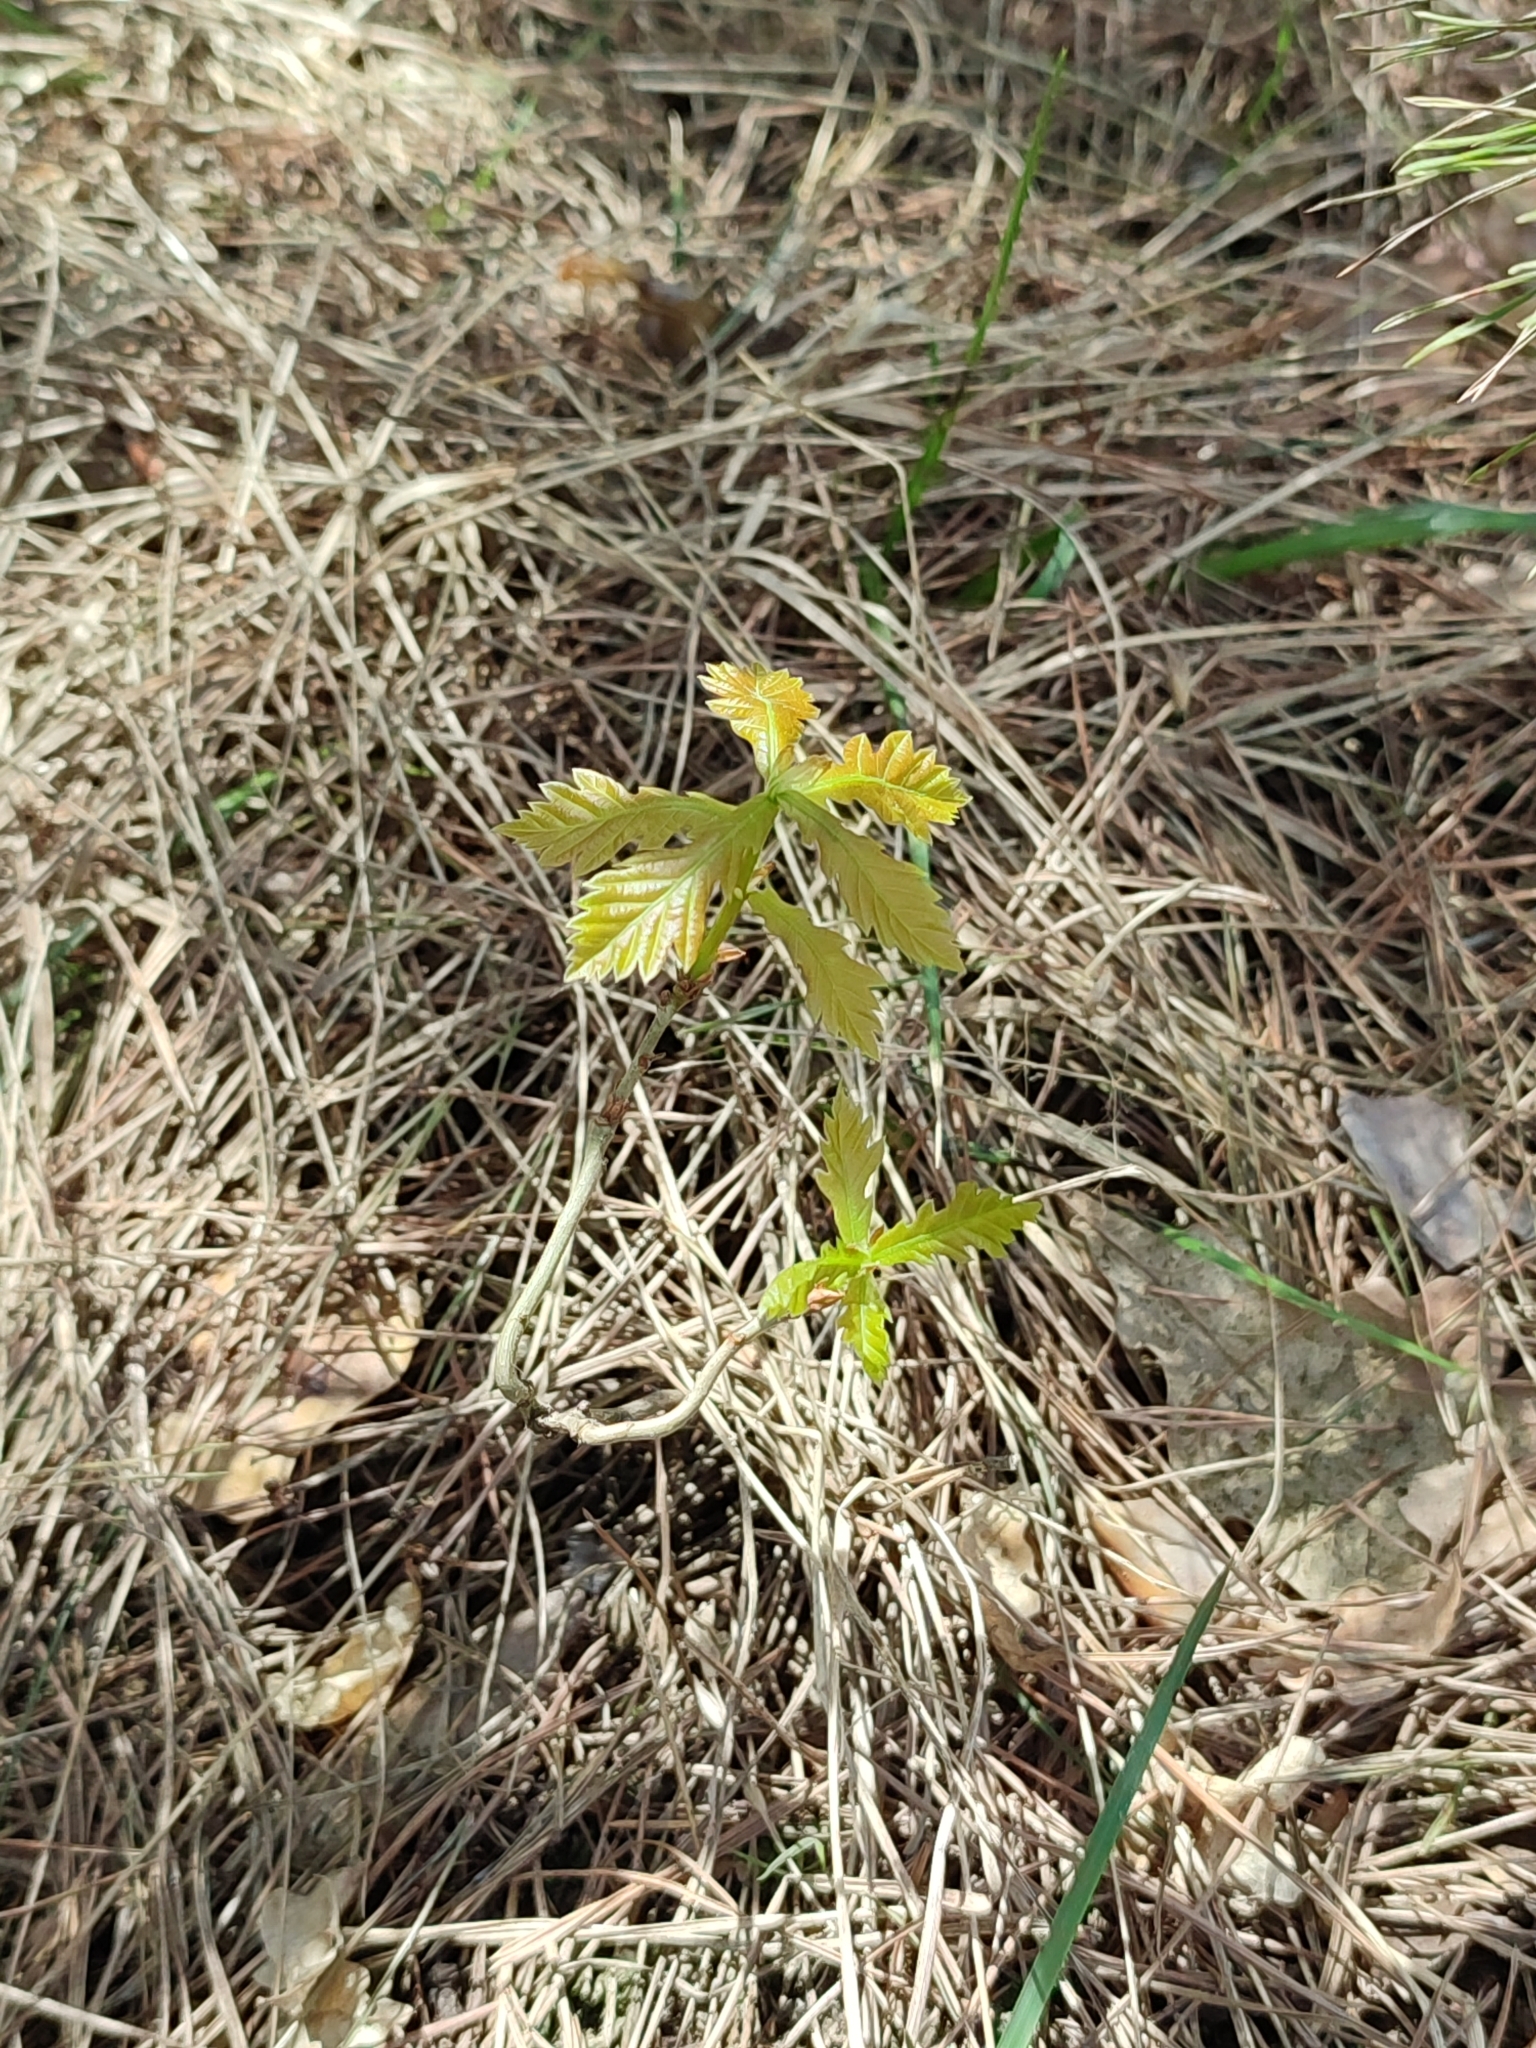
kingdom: Plantae
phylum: Tracheophyta
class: Magnoliopsida
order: Fagales
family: Fagaceae
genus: Quercus
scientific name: Quercus robur
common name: Pedunculate oak
